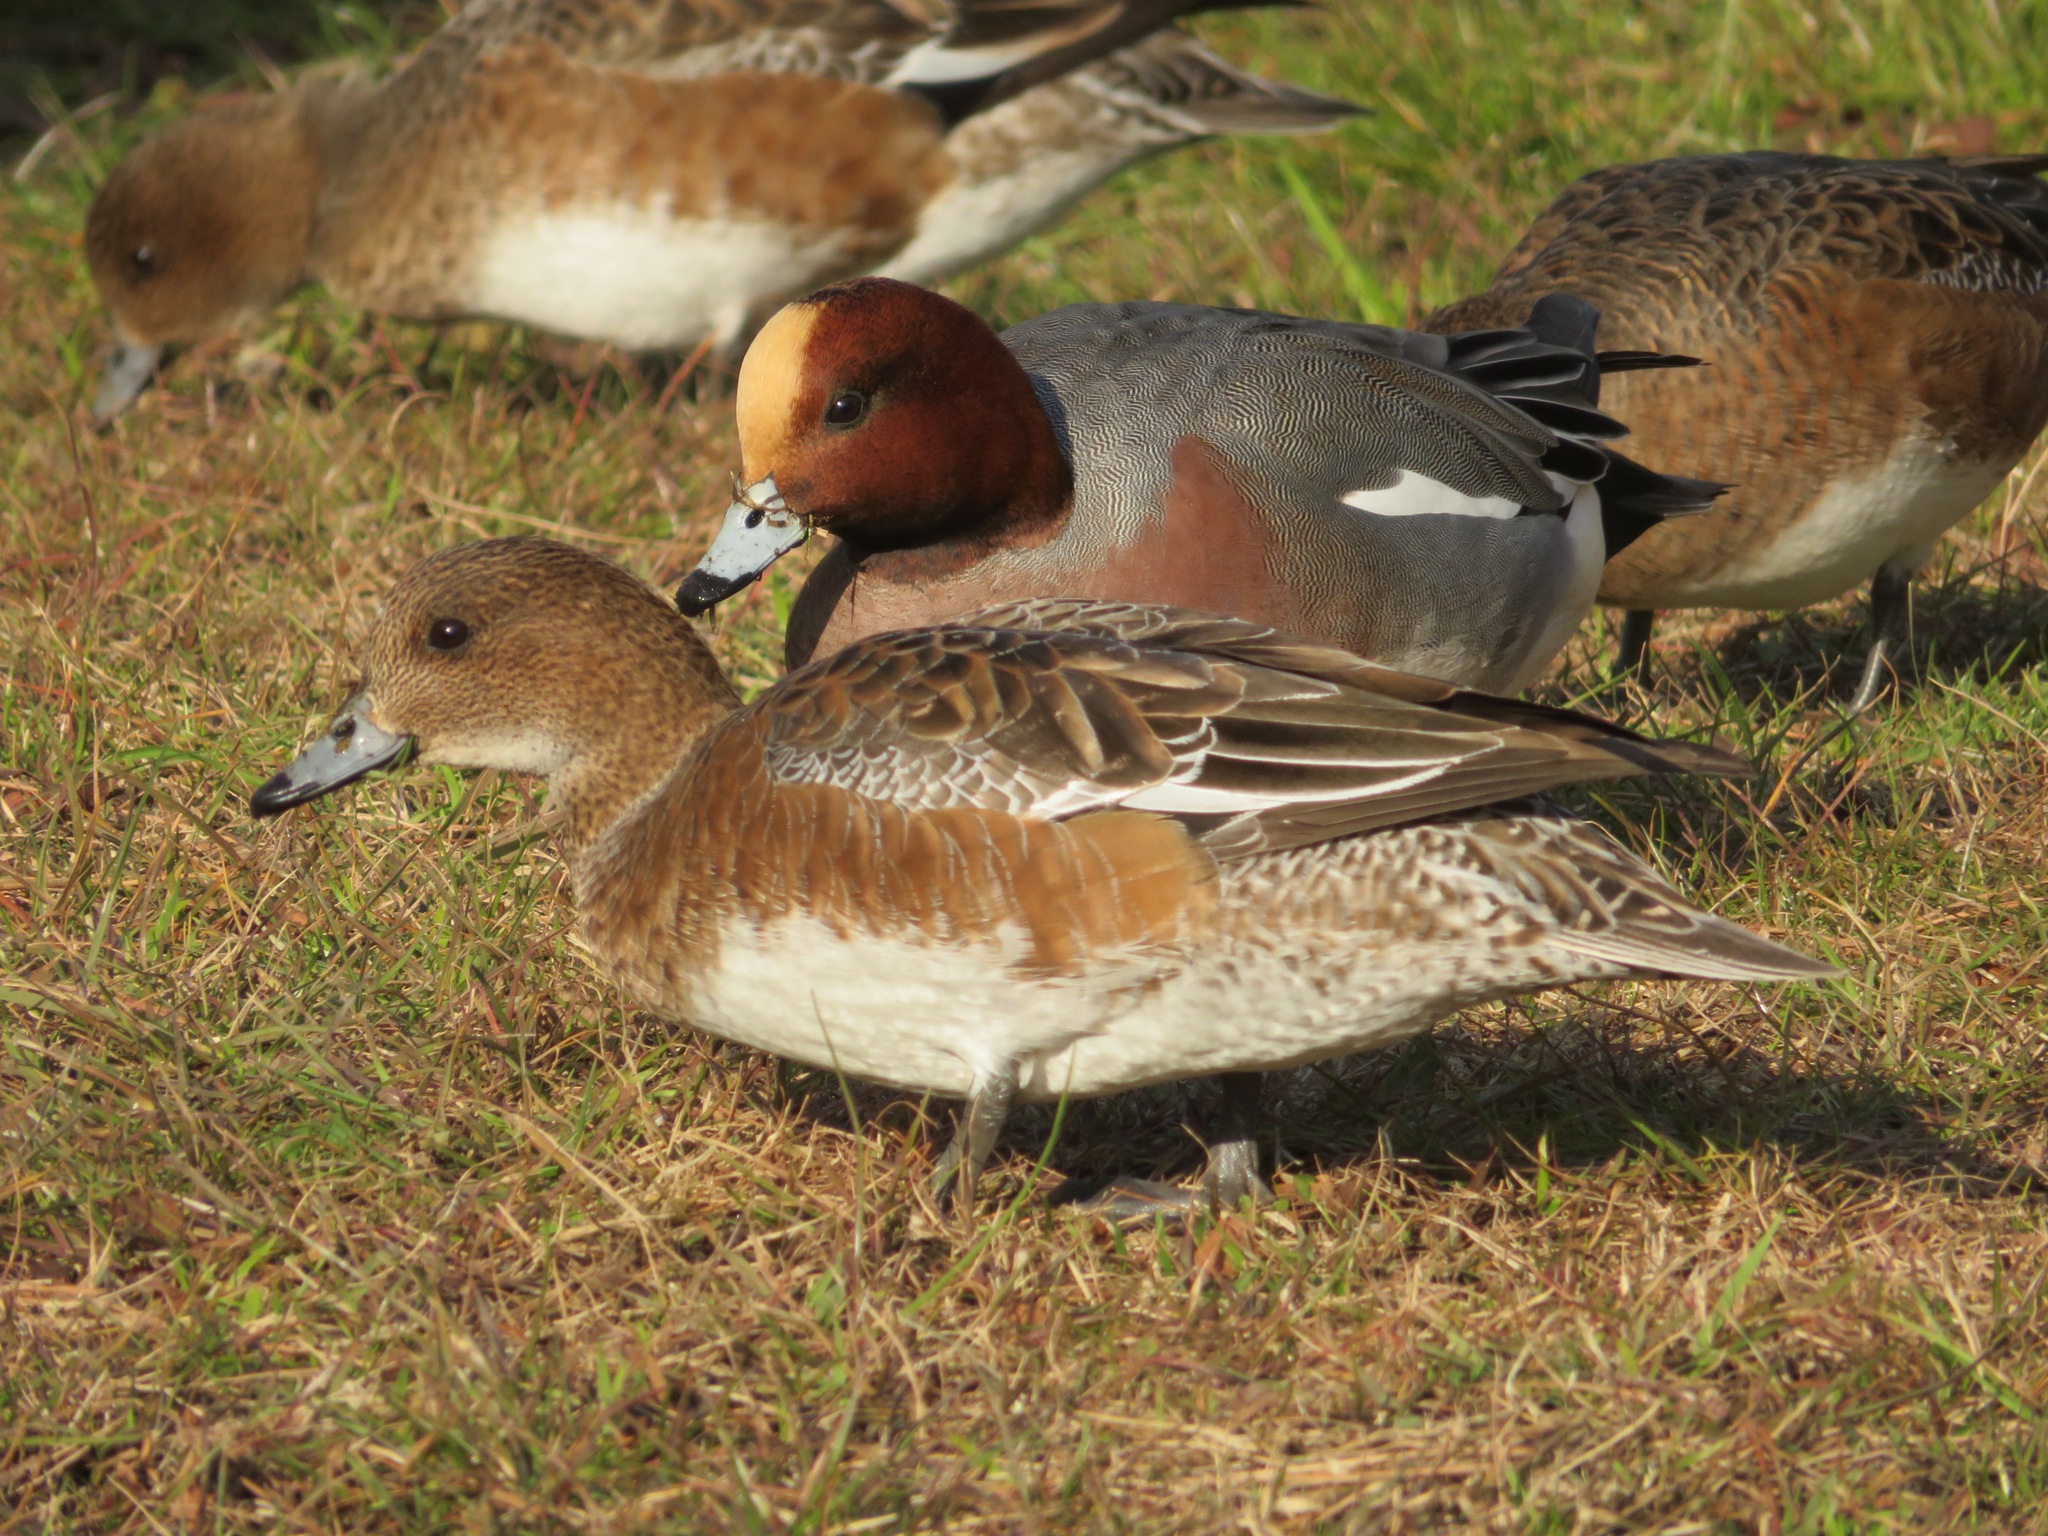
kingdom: Animalia
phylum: Chordata
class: Aves
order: Anseriformes
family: Anatidae
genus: Mareca
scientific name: Mareca penelope
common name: Eurasian wigeon
